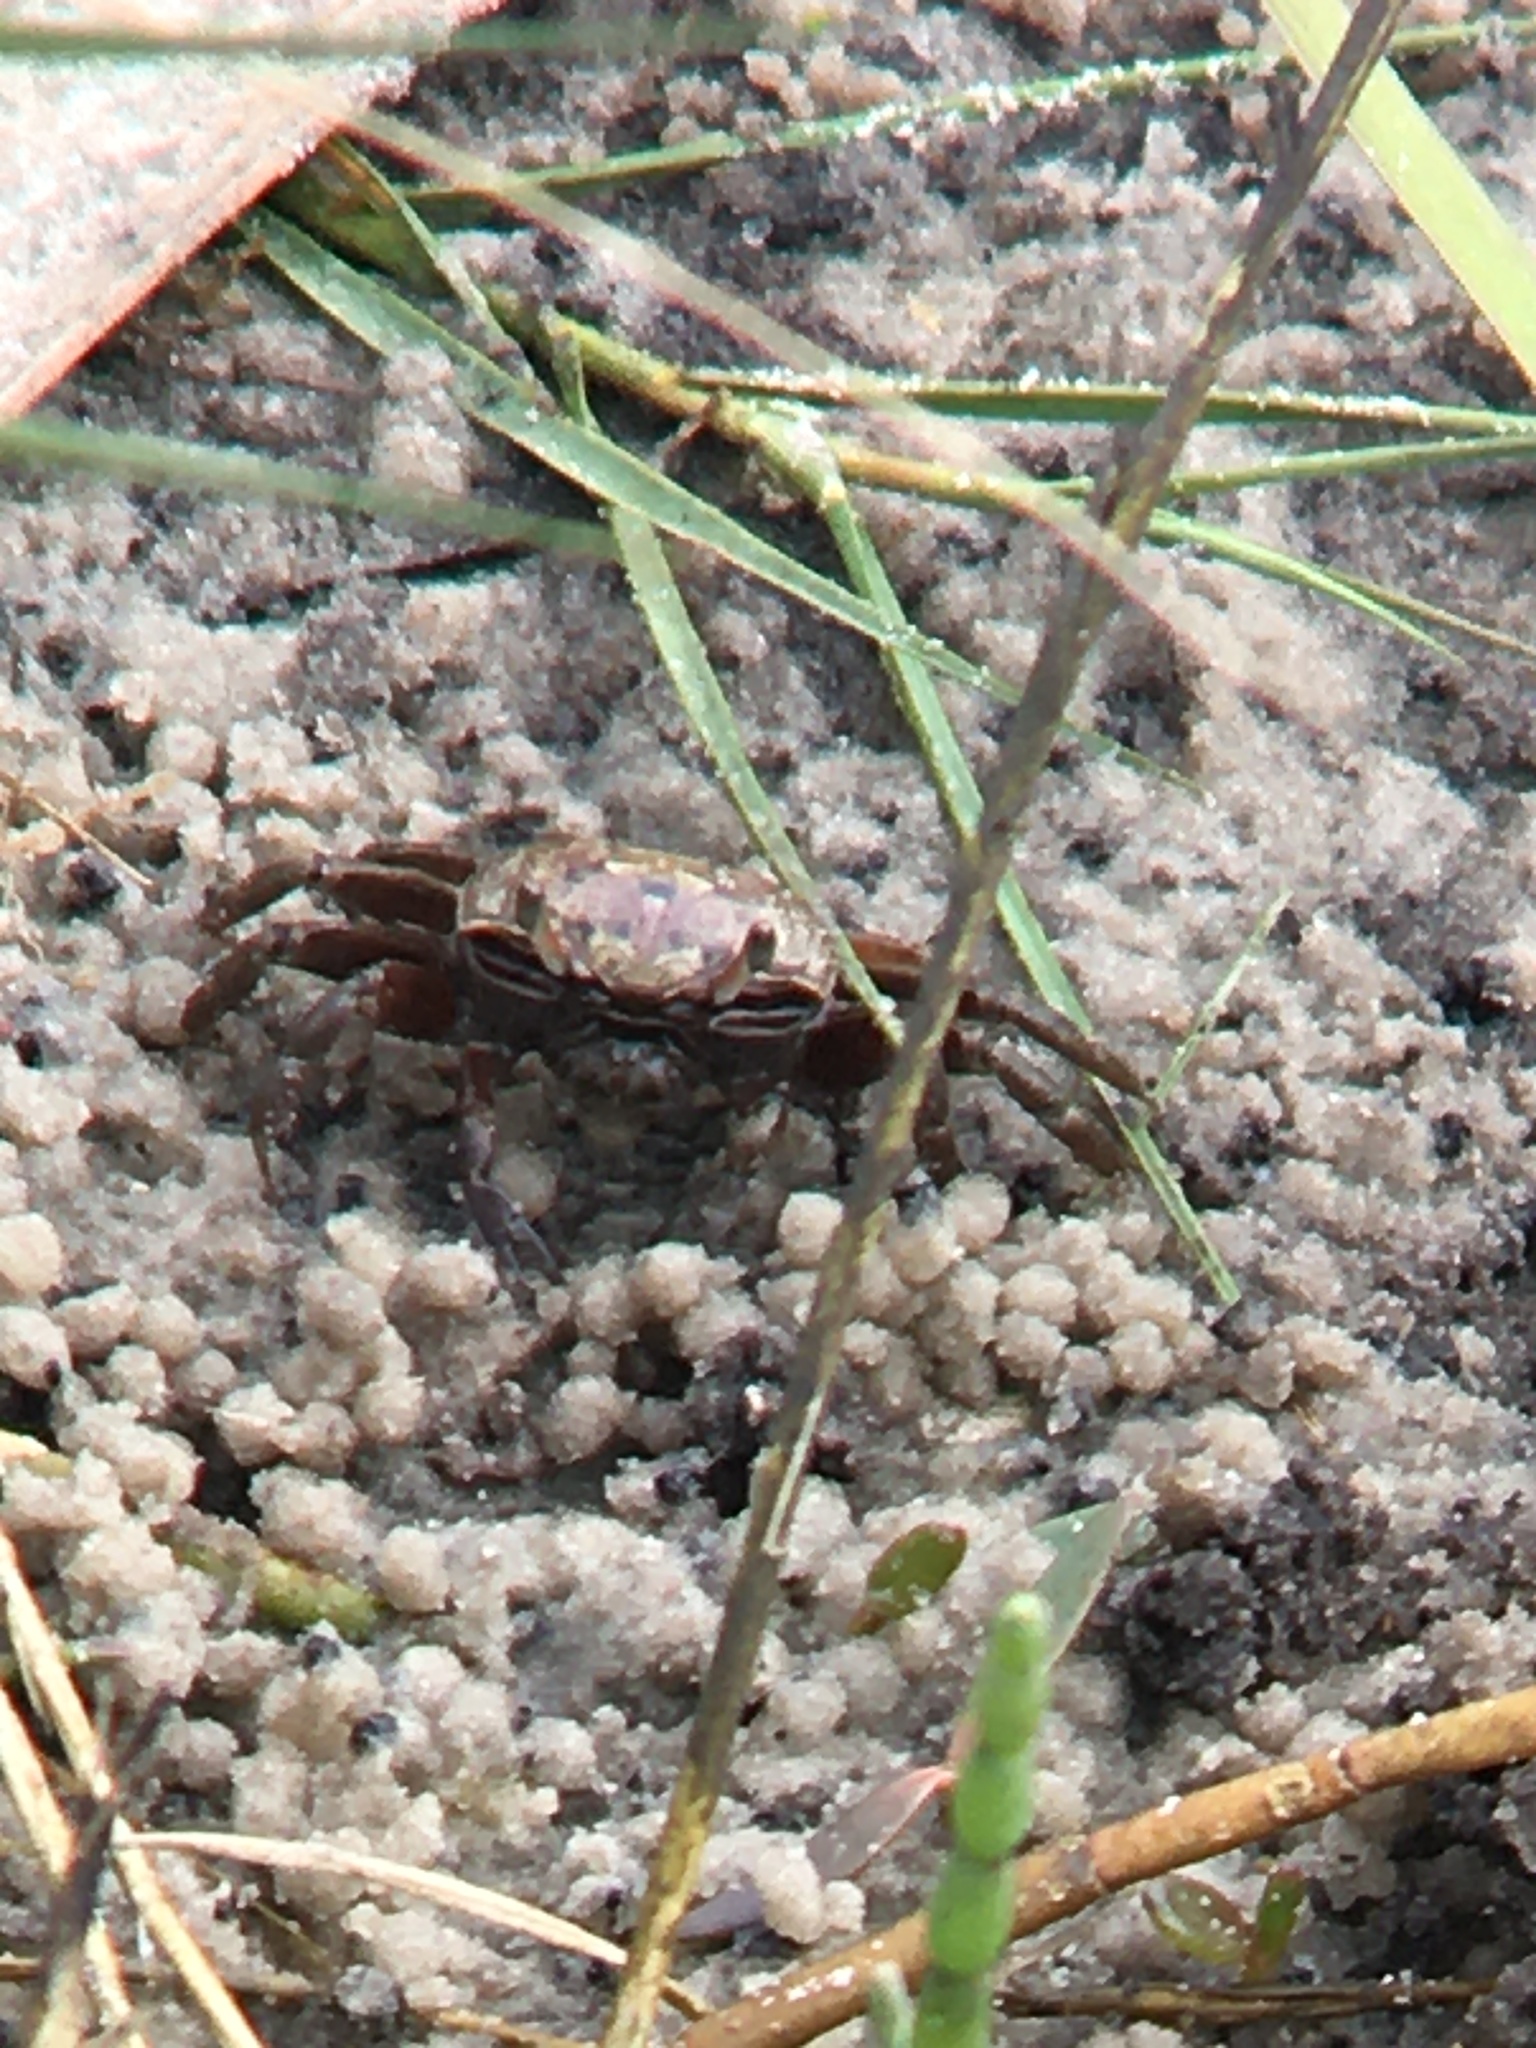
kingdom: Animalia
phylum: Arthropoda
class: Malacostraca
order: Decapoda
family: Ocypodidae
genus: Leptuca
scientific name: Leptuca pugilator
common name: Atlantic sand fiddler crab
